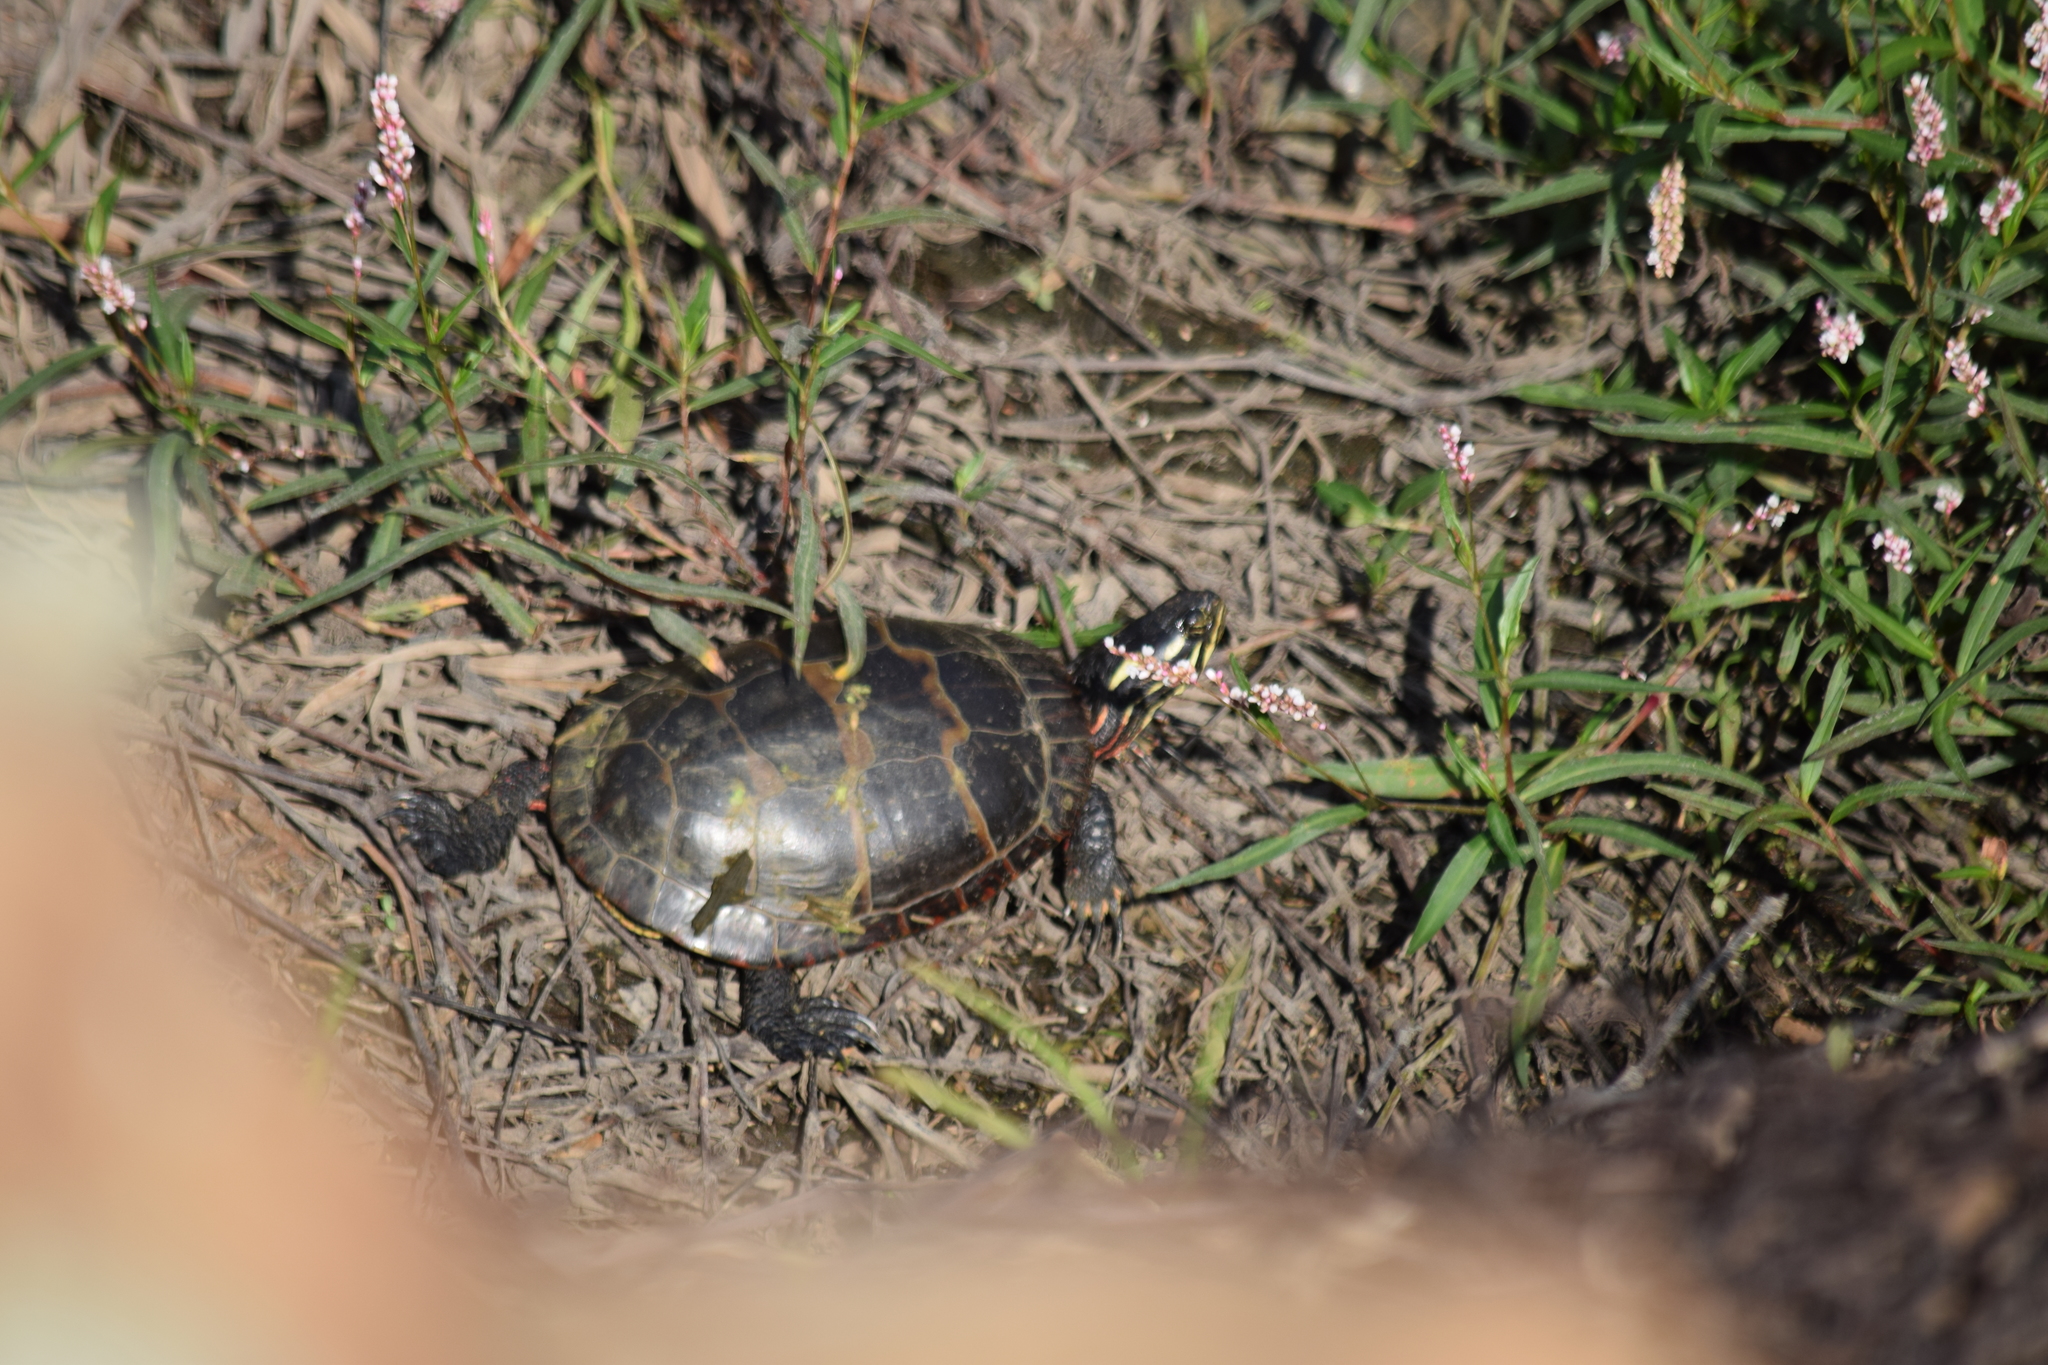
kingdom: Animalia
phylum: Chordata
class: Testudines
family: Emydidae
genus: Chrysemys
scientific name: Chrysemys picta
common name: Painted turtle
